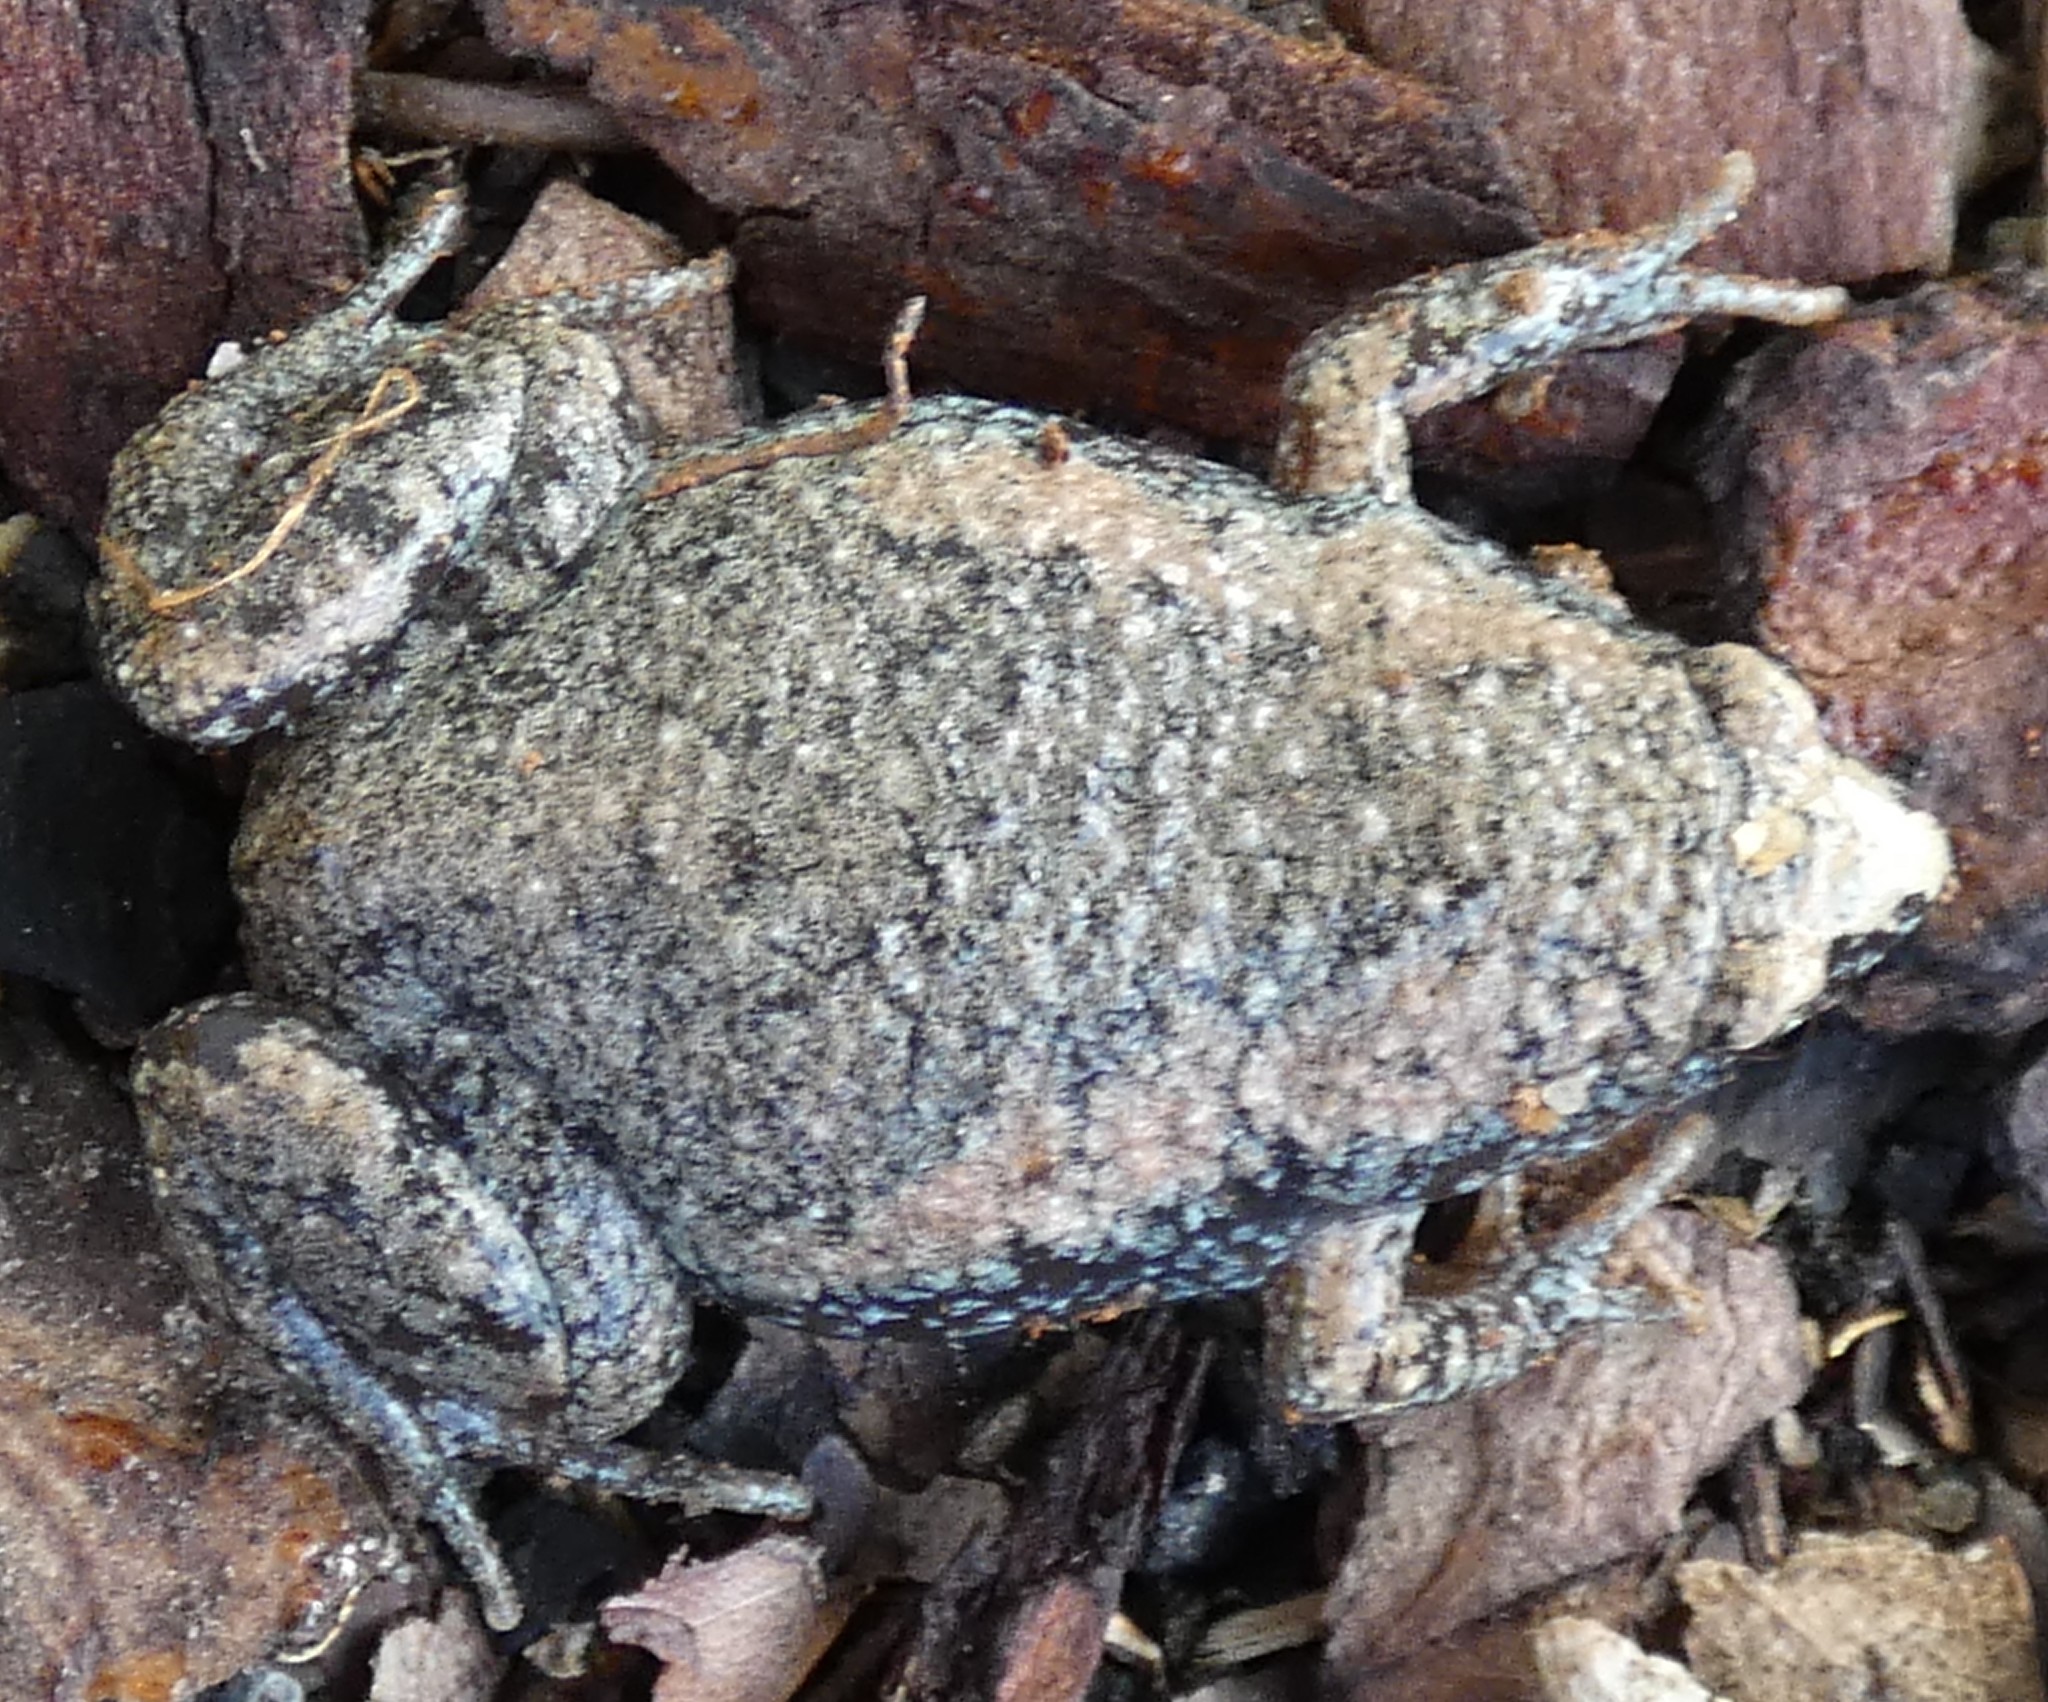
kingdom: Animalia
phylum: Chordata
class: Amphibia
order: Anura
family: Microhylidae
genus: Gastrophryne
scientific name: Gastrophryne carolinensis
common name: Eastern narrowmouth toad
